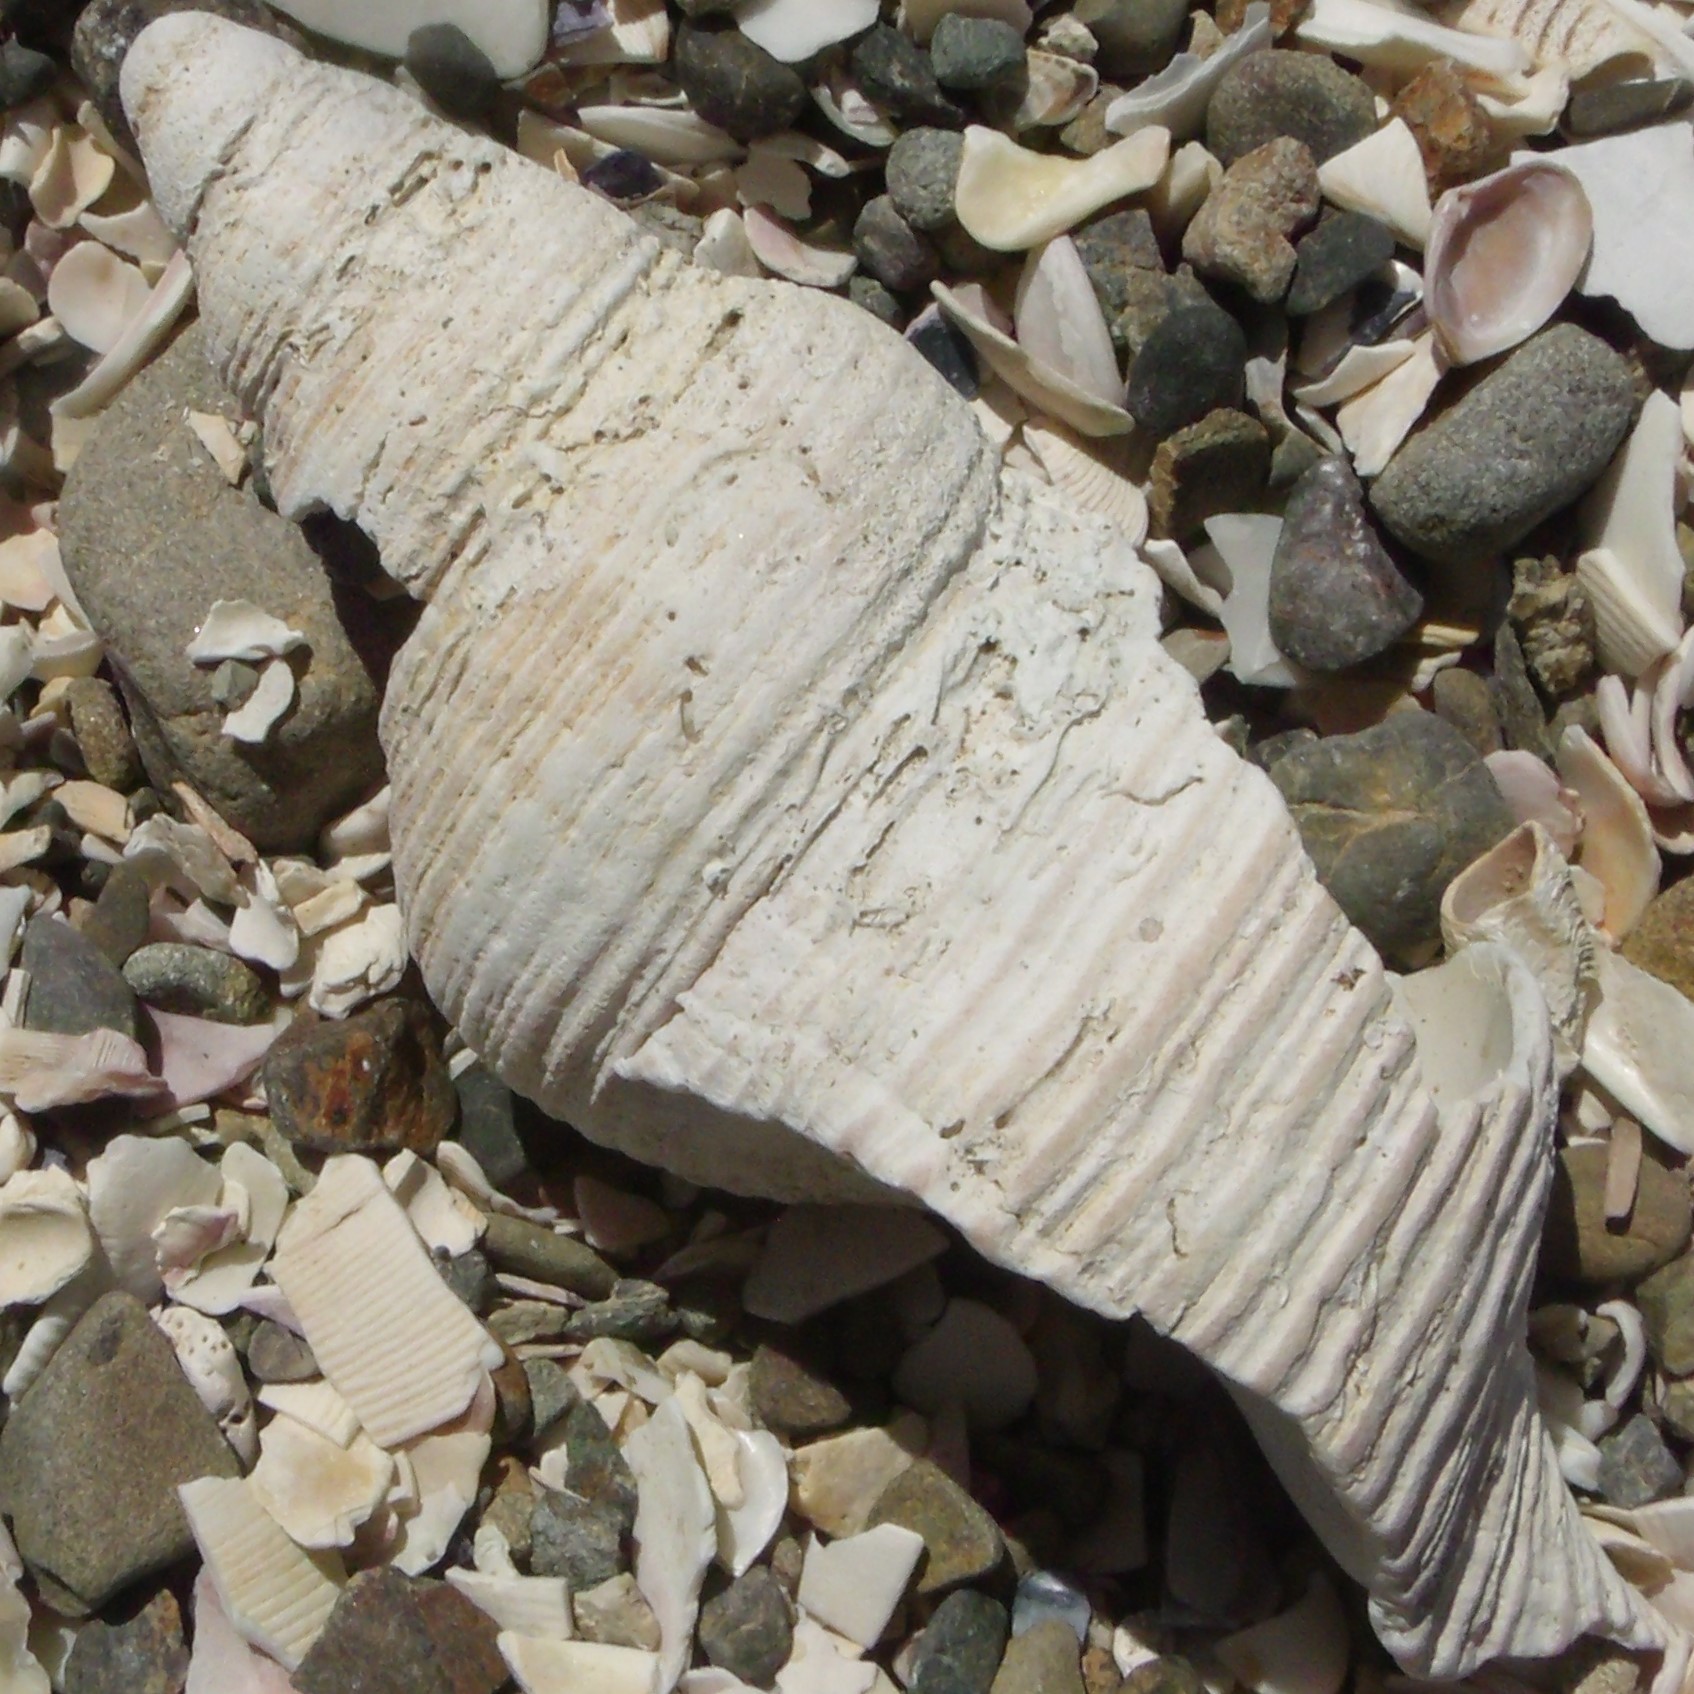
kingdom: Animalia
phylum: Mollusca
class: Gastropoda
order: Neogastropoda
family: Austrosiphonidae
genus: Penion
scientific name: Penion sulcatus
